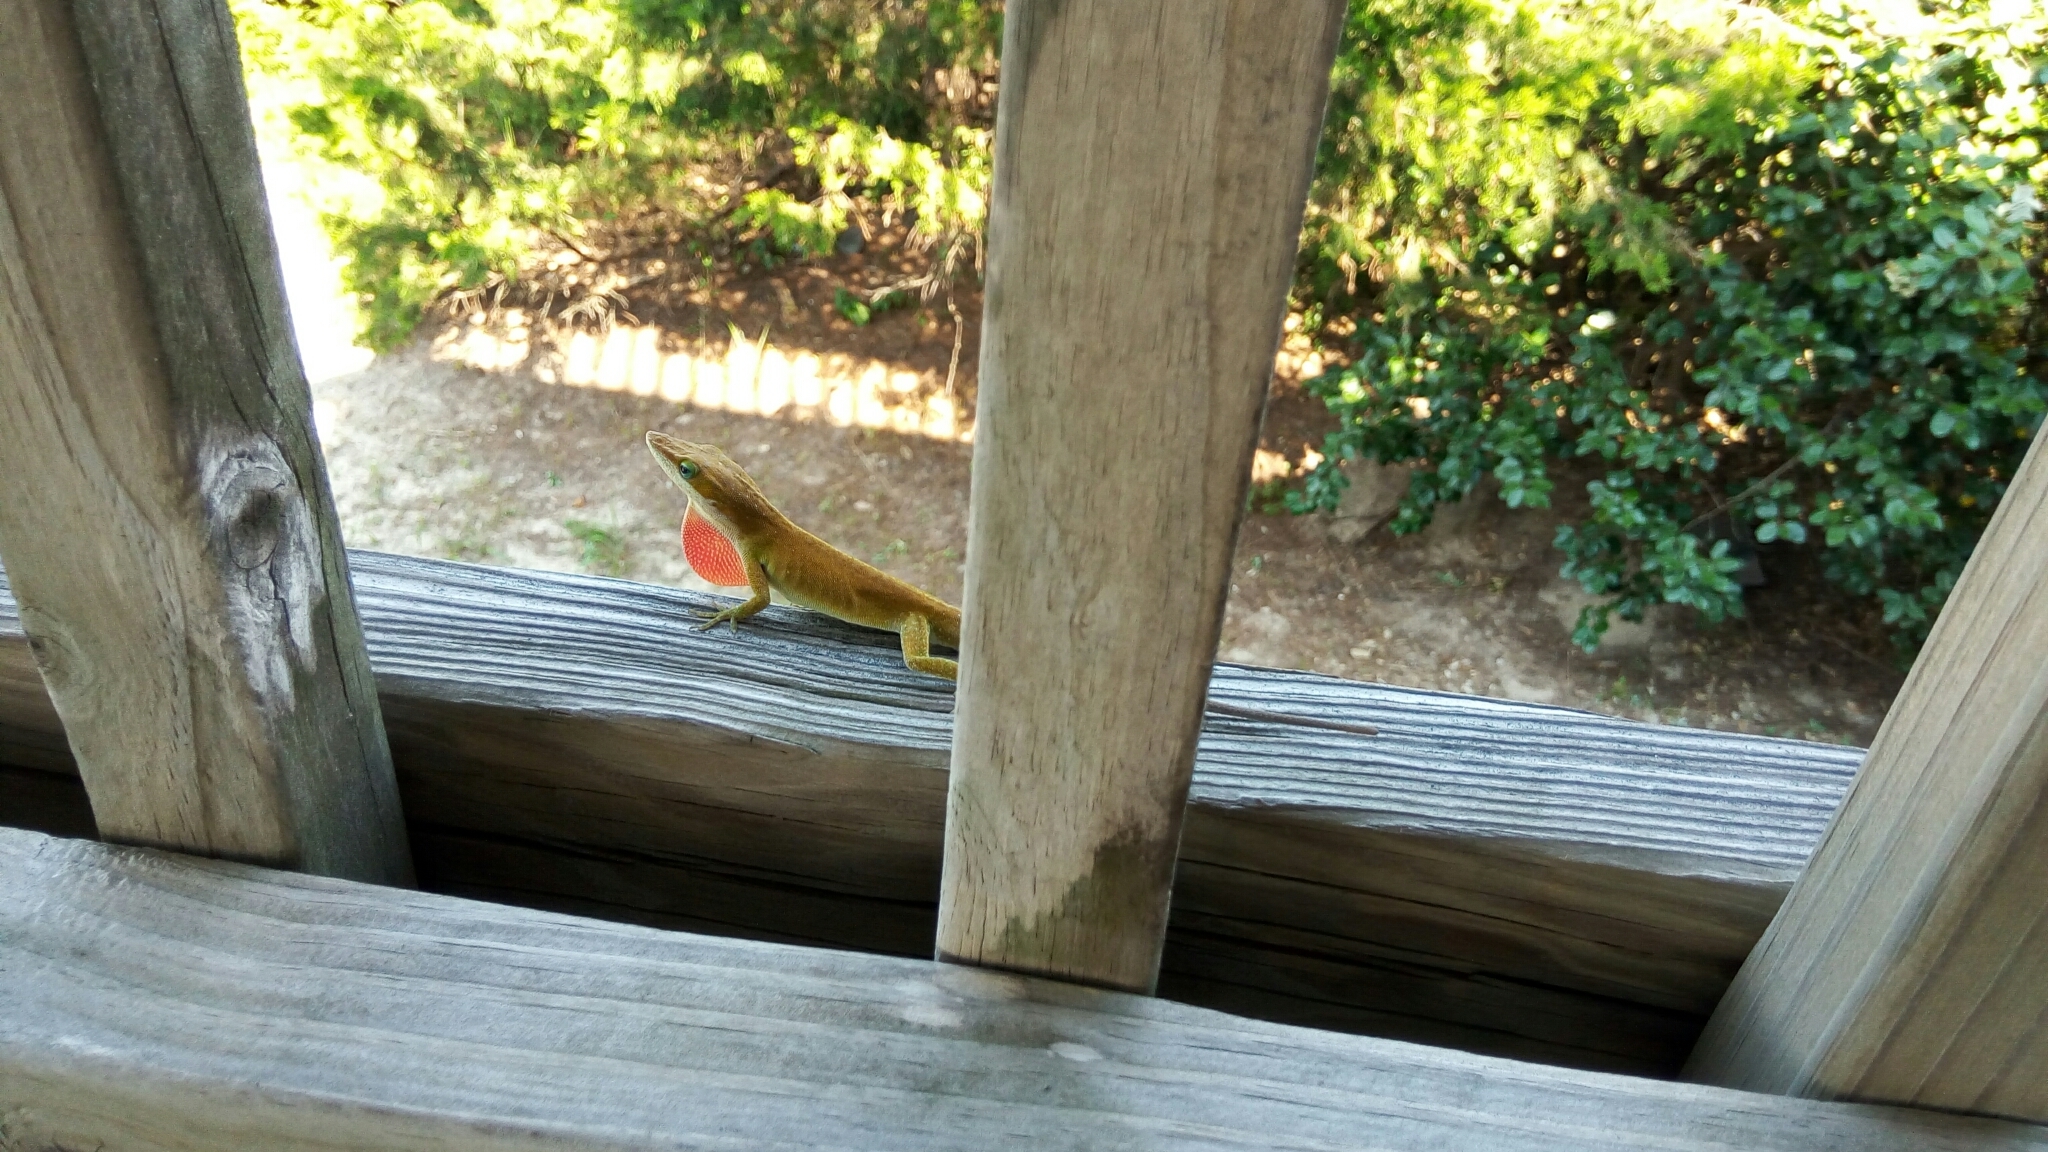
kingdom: Animalia
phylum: Chordata
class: Squamata
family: Dactyloidae
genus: Anolis
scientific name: Anolis carolinensis
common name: Green anole
